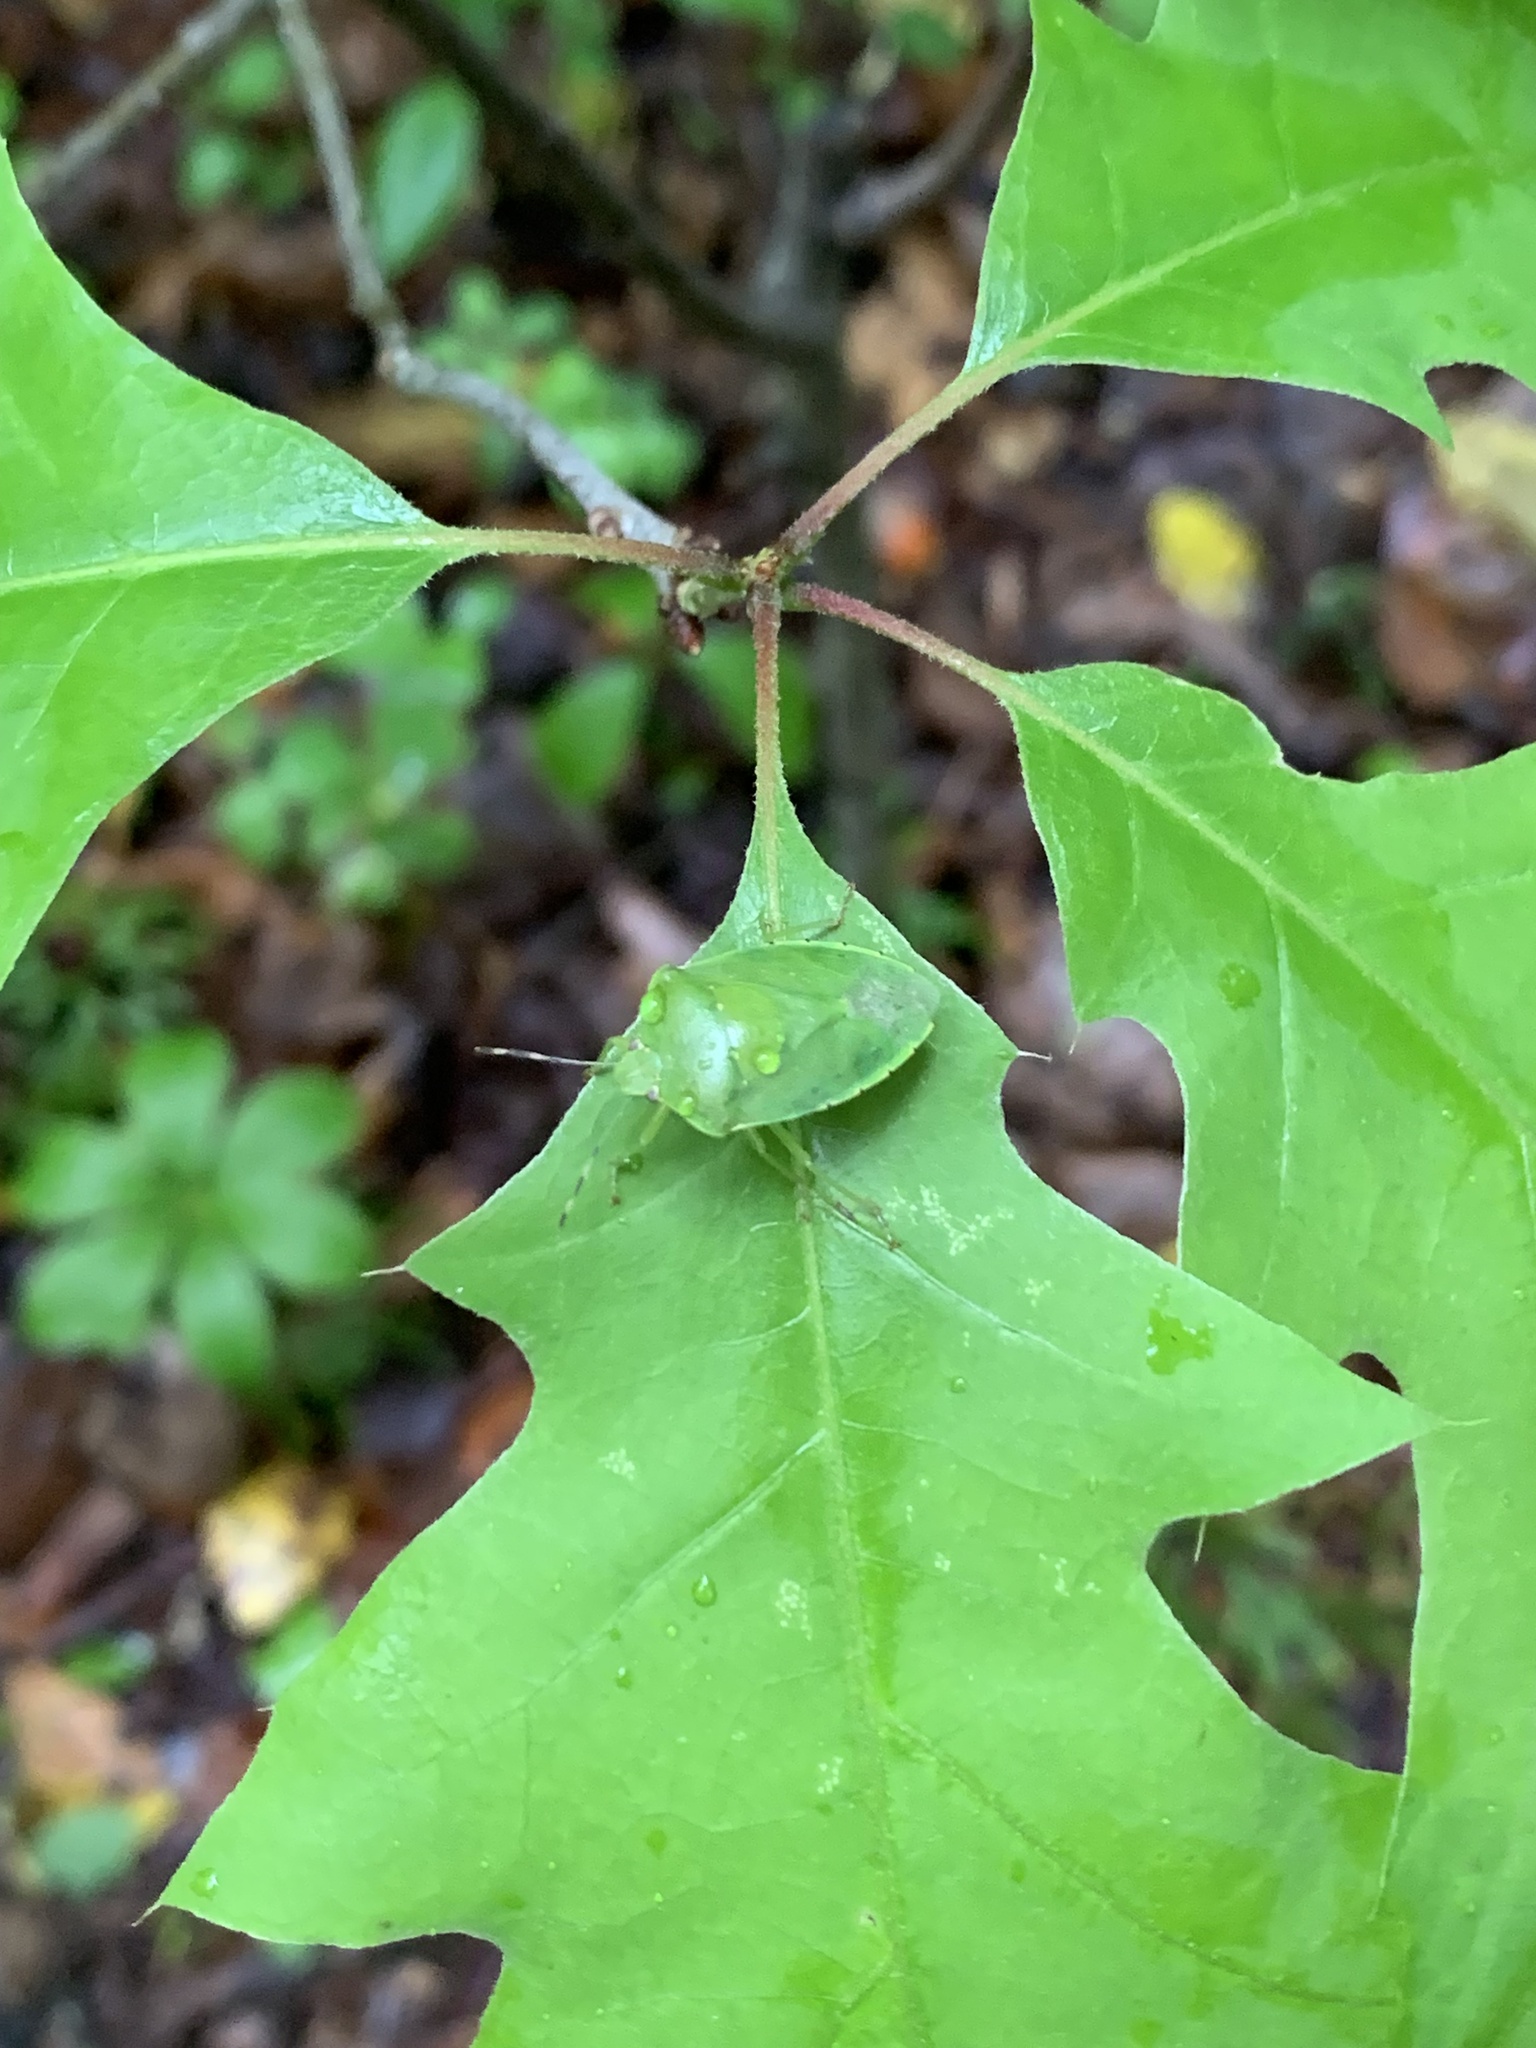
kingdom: Animalia
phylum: Arthropoda
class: Insecta
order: Hemiptera
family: Pentatomidae
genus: Chinavia
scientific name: Chinavia hilaris
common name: Green stink bug
